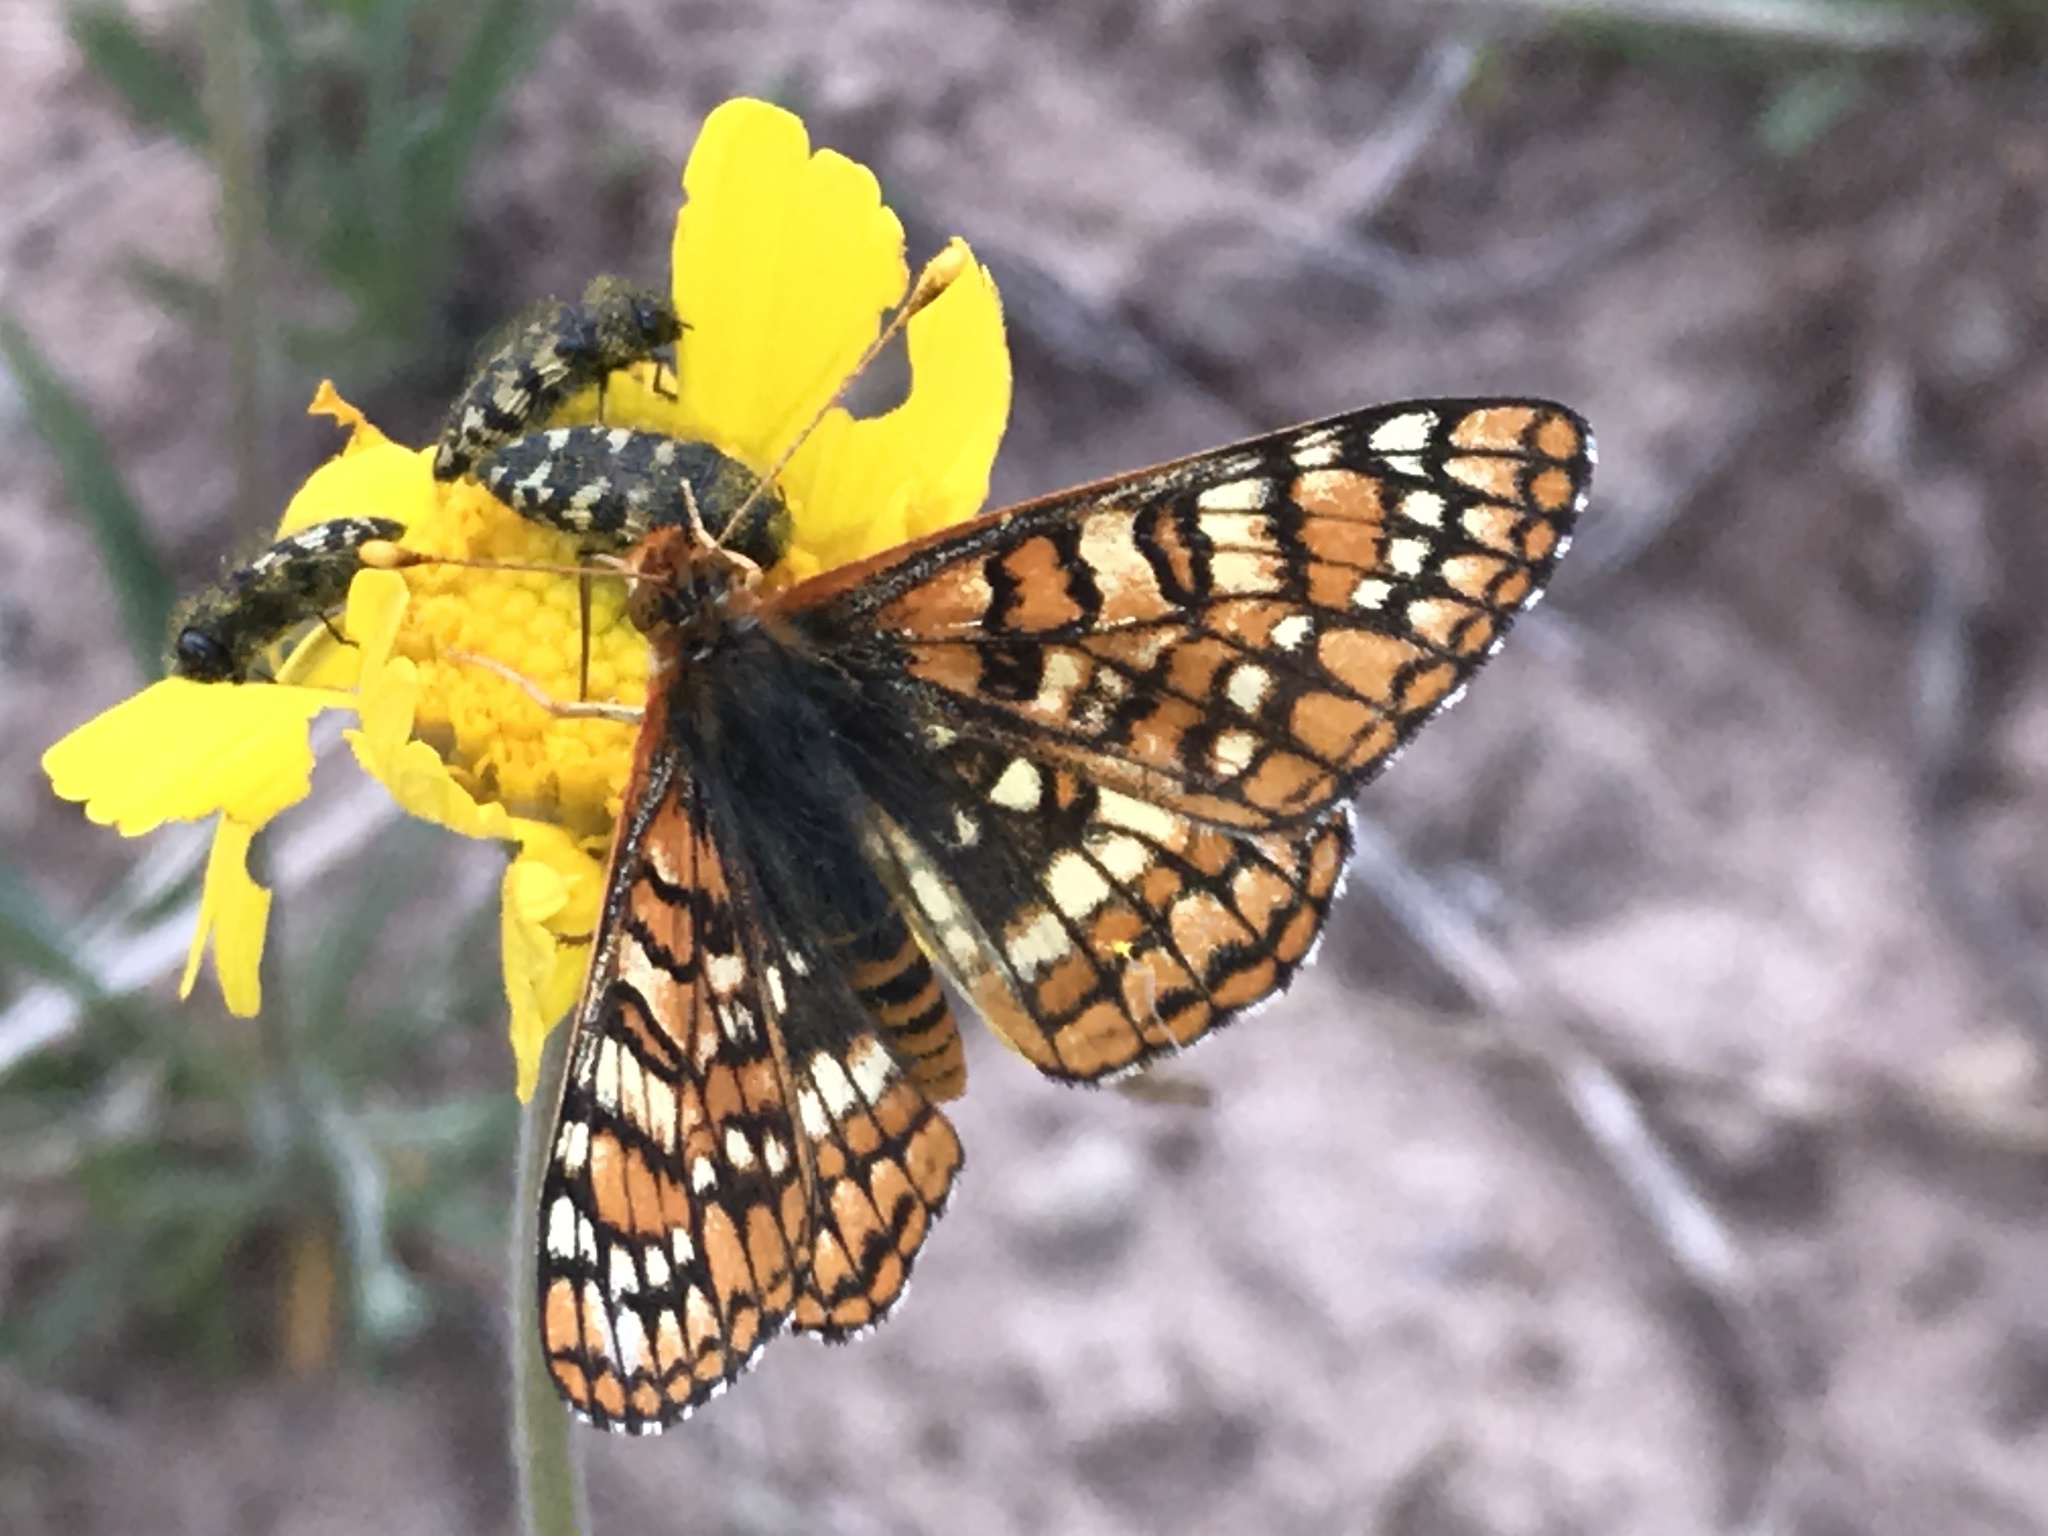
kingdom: Animalia
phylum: Arthropoda
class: Insecta
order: Lepidoptera
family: Nymphalidae
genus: Occidryas
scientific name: Occidryas anicia
